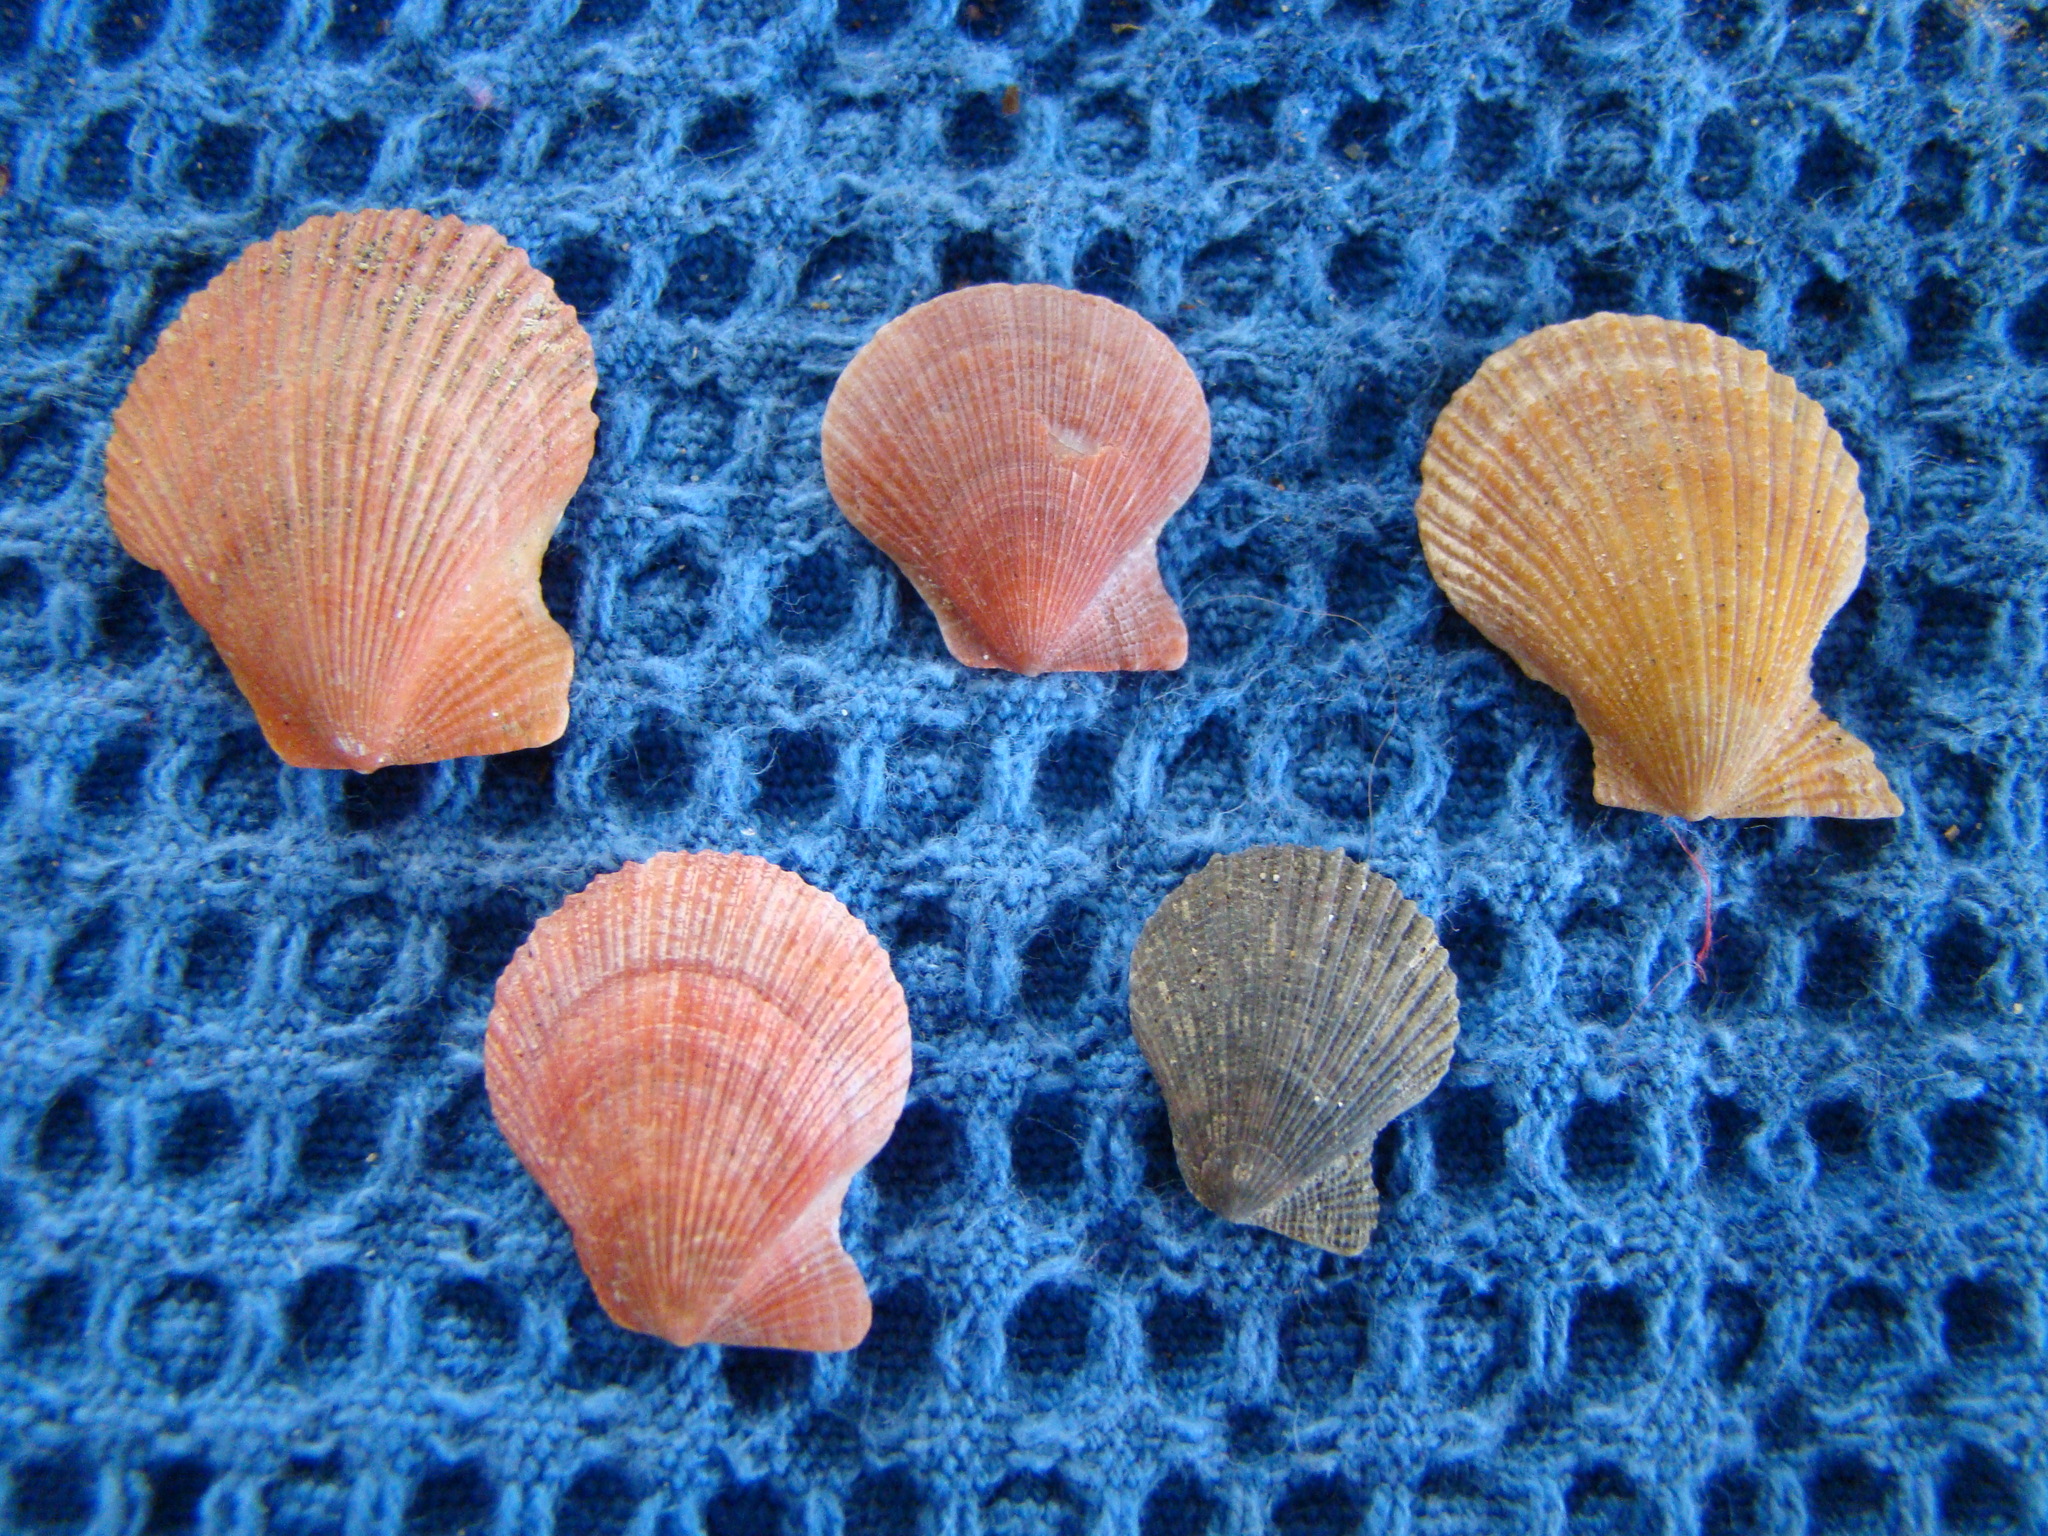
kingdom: Animalia
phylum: Mollusca
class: Bivalvia
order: Pectinida
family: Pectinidae
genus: Talochlamys
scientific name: Talochlamys zelandiae
